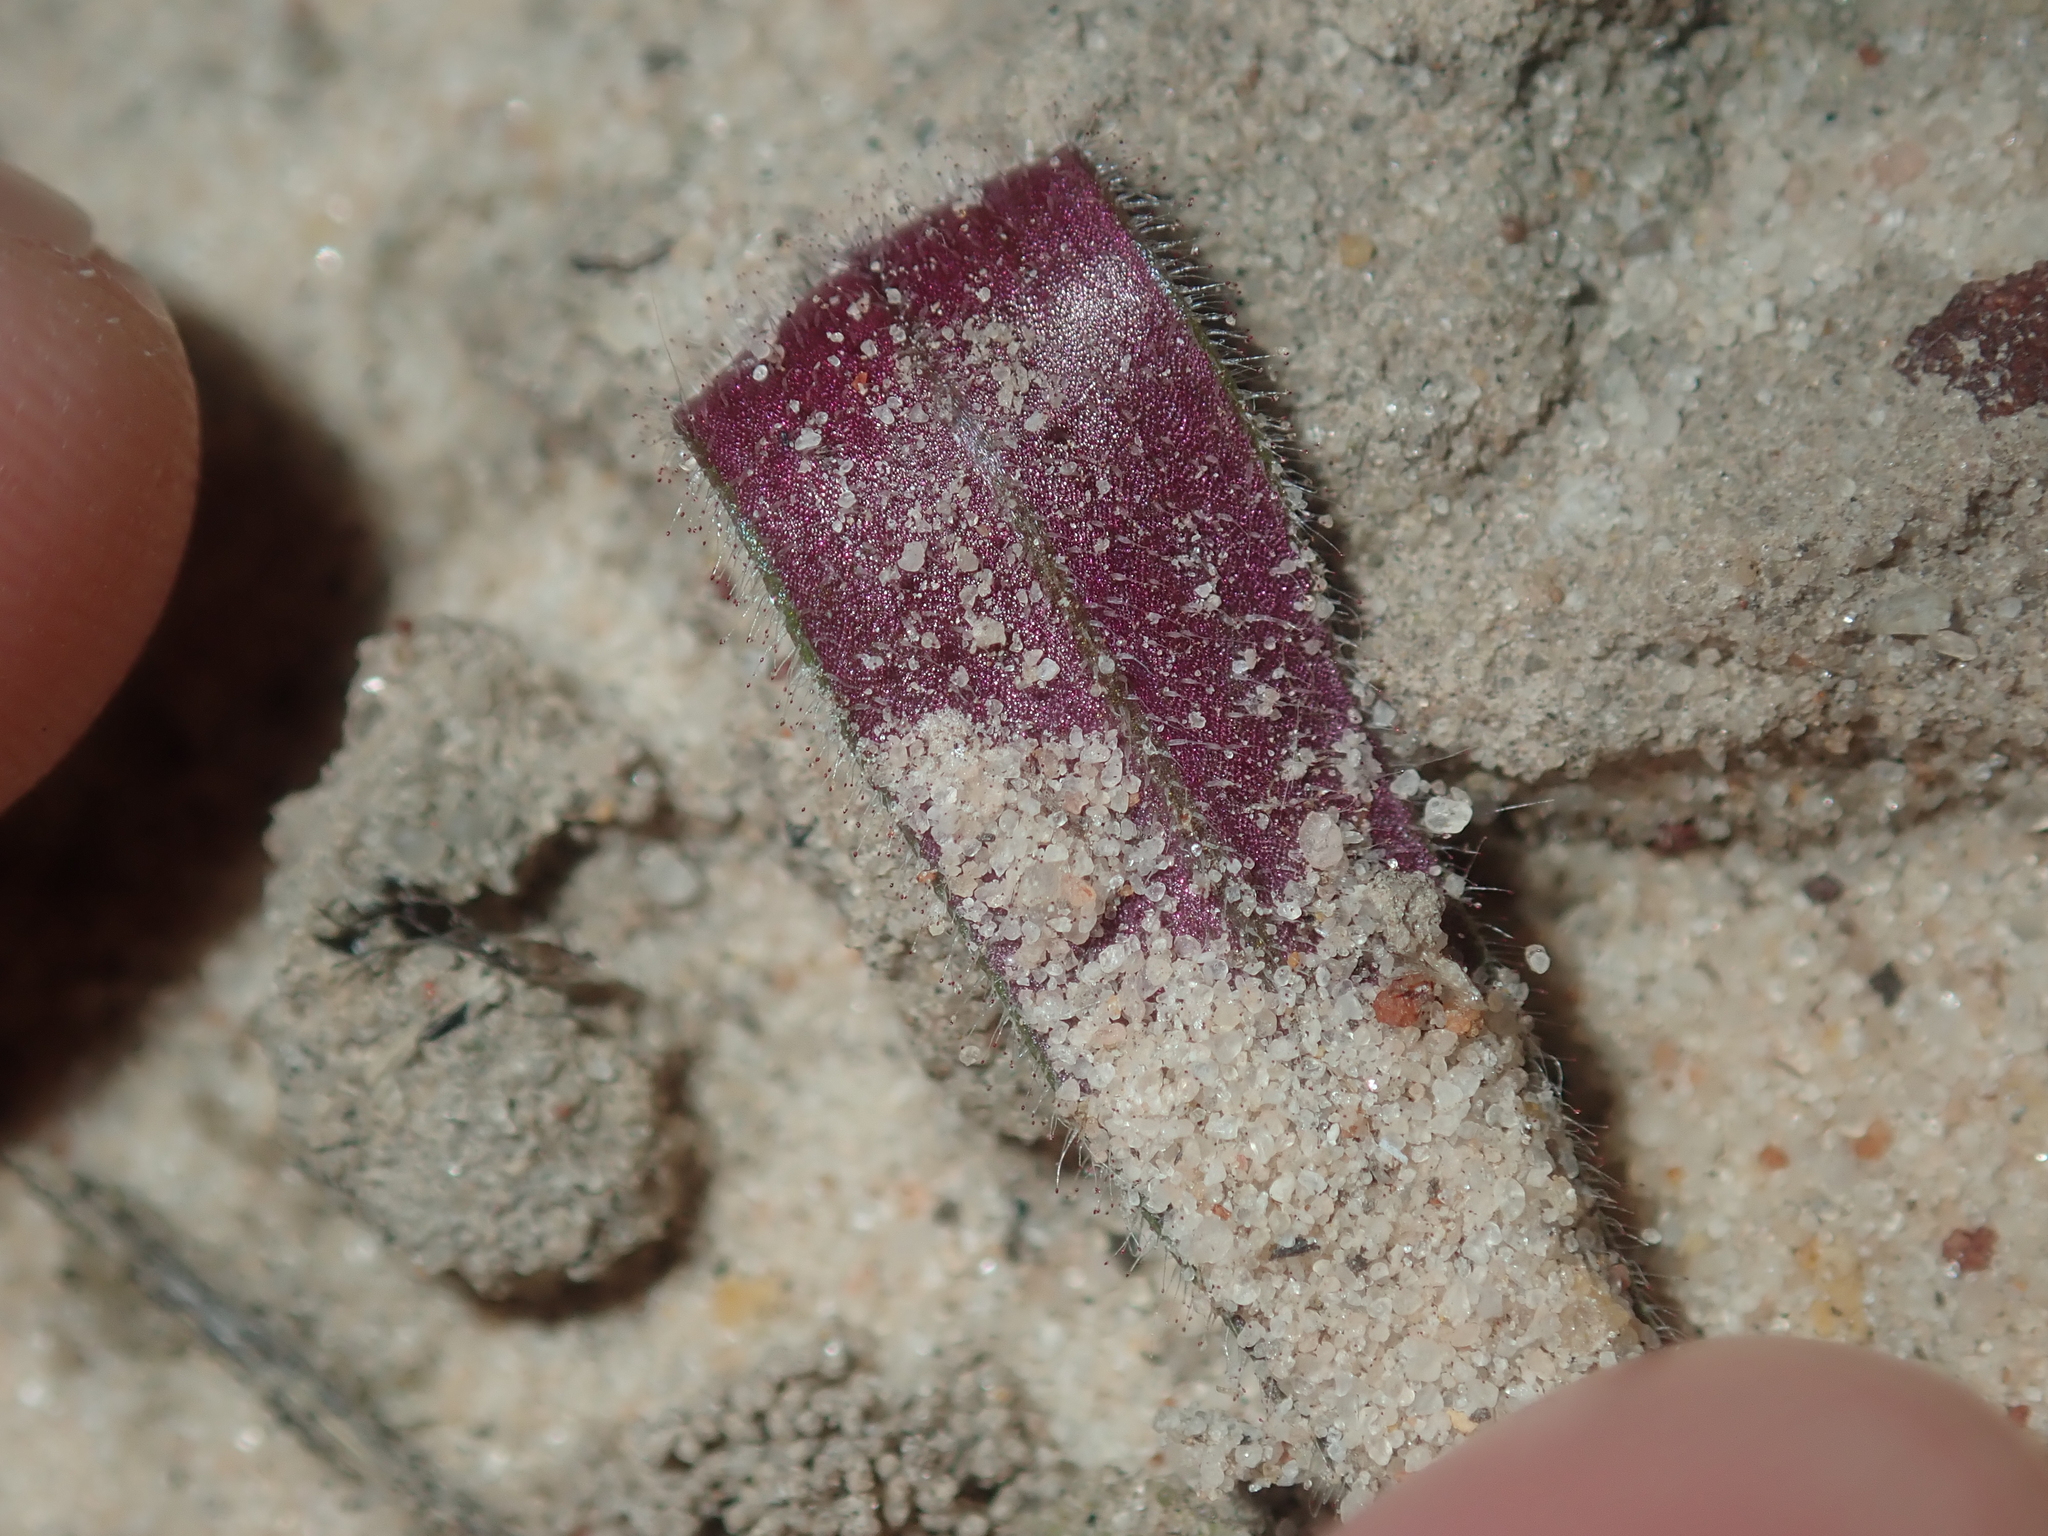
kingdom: Plantae
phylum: Tracheophyta
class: Liliopsida
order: Asparagales
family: Orchidaceae
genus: Caladenia
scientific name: Caladenia flava
